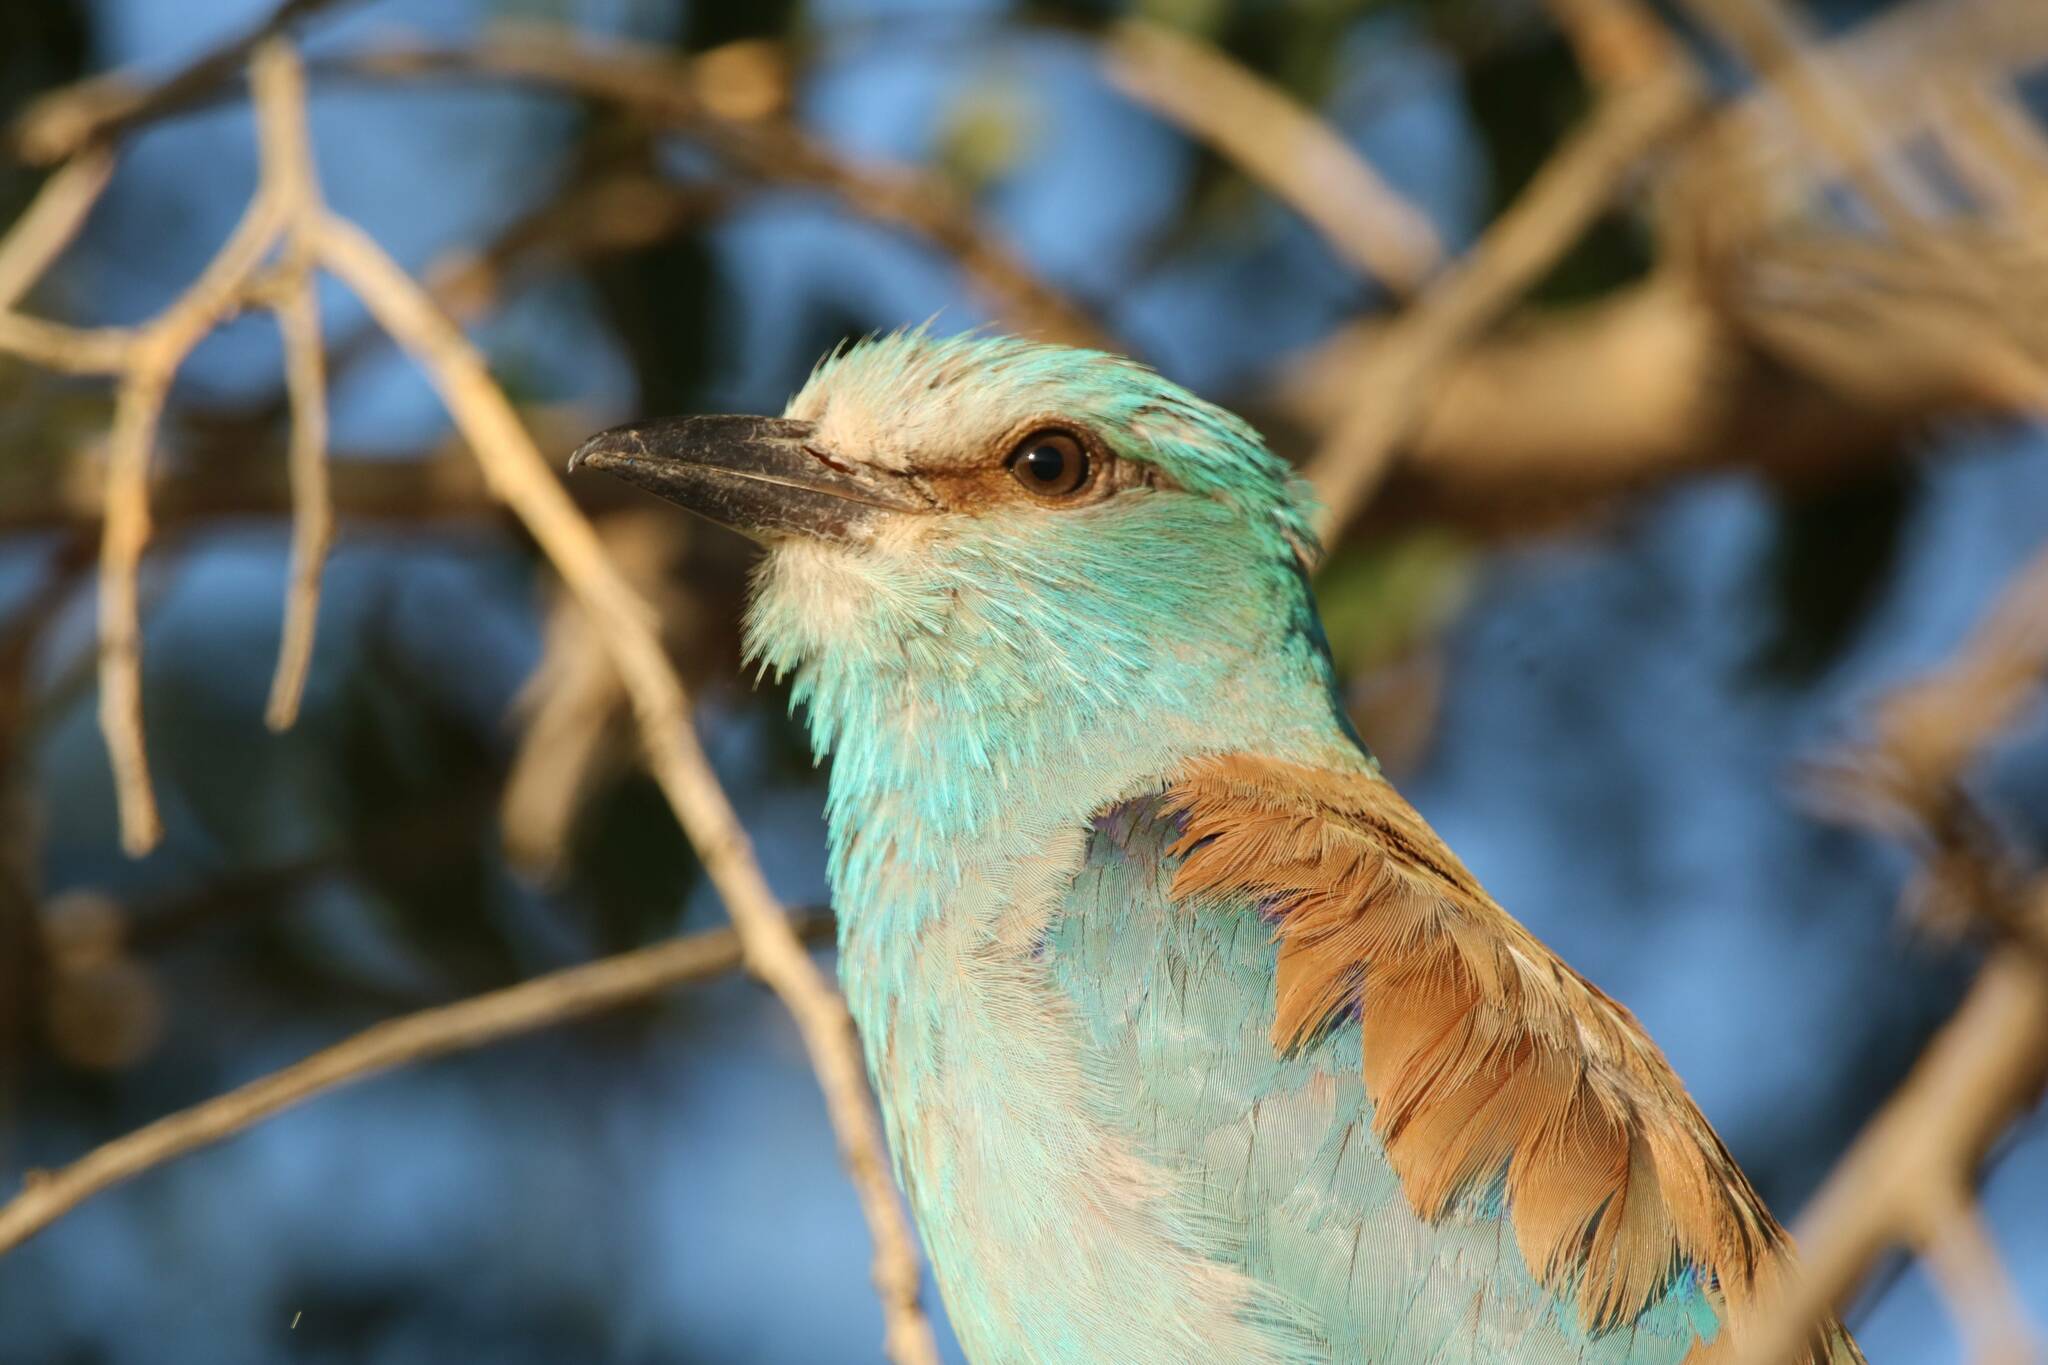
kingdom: Animalia
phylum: Chordata
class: Aves
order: Coraciiformes
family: Coraciidae
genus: Coracias
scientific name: Coracias garrulus
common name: European roller
